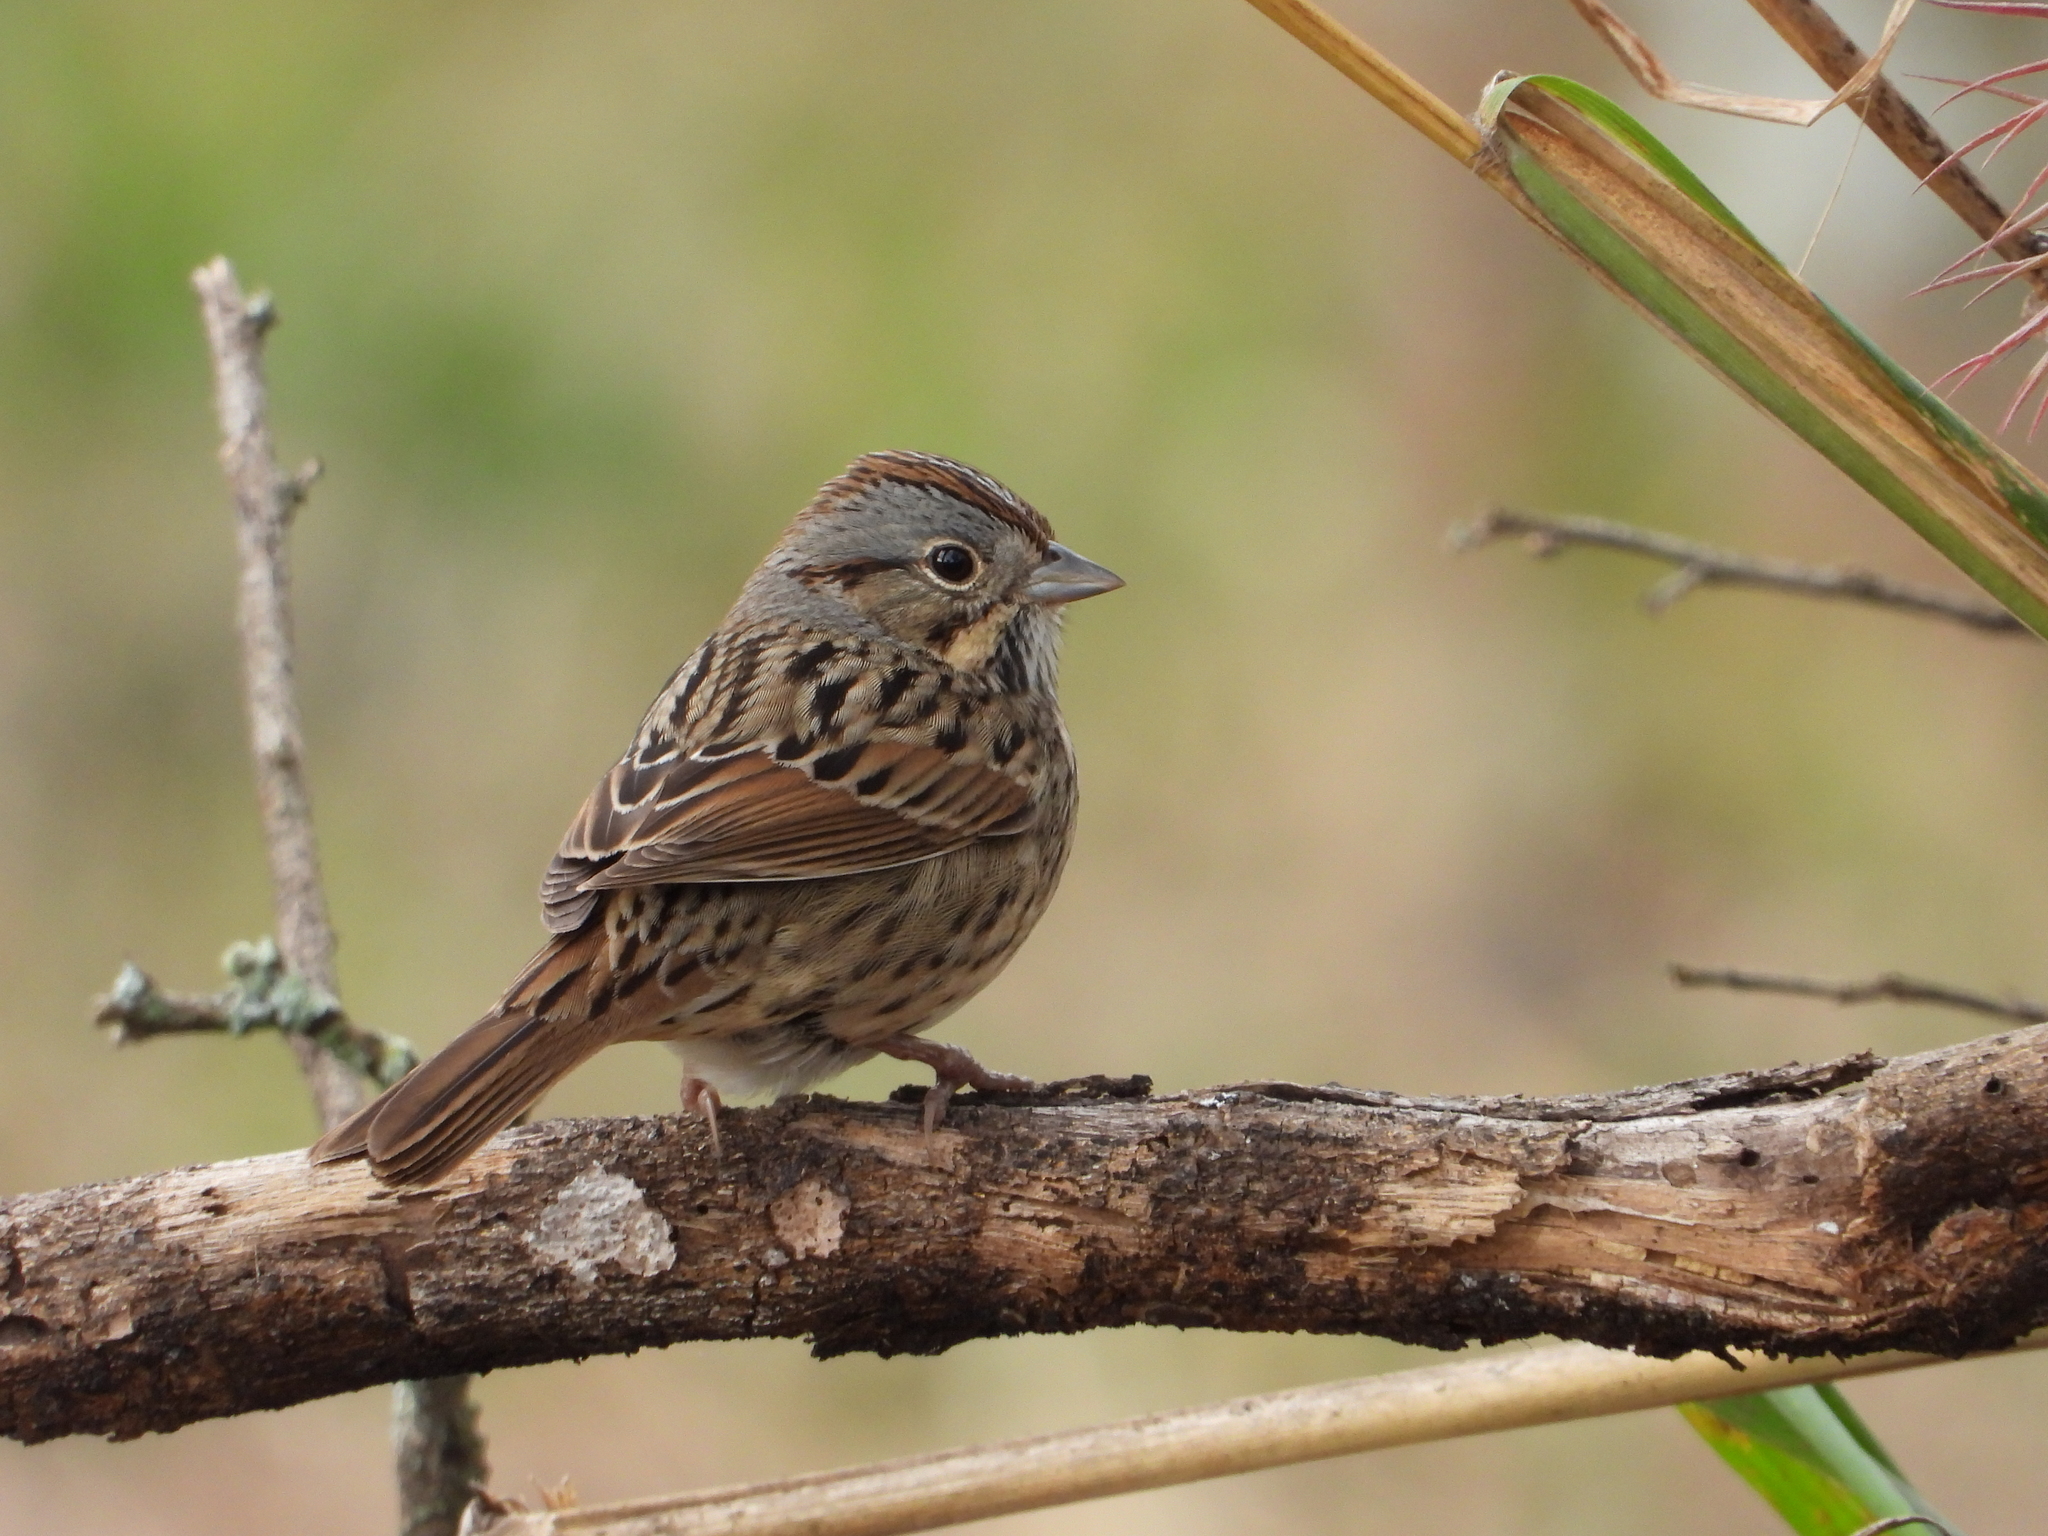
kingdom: Animalia
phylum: Chordata
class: Aves
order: Passeriformes
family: Passerellidae
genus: Melospiza
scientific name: Melospiza lincolnii
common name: Lincoln's sparrow
